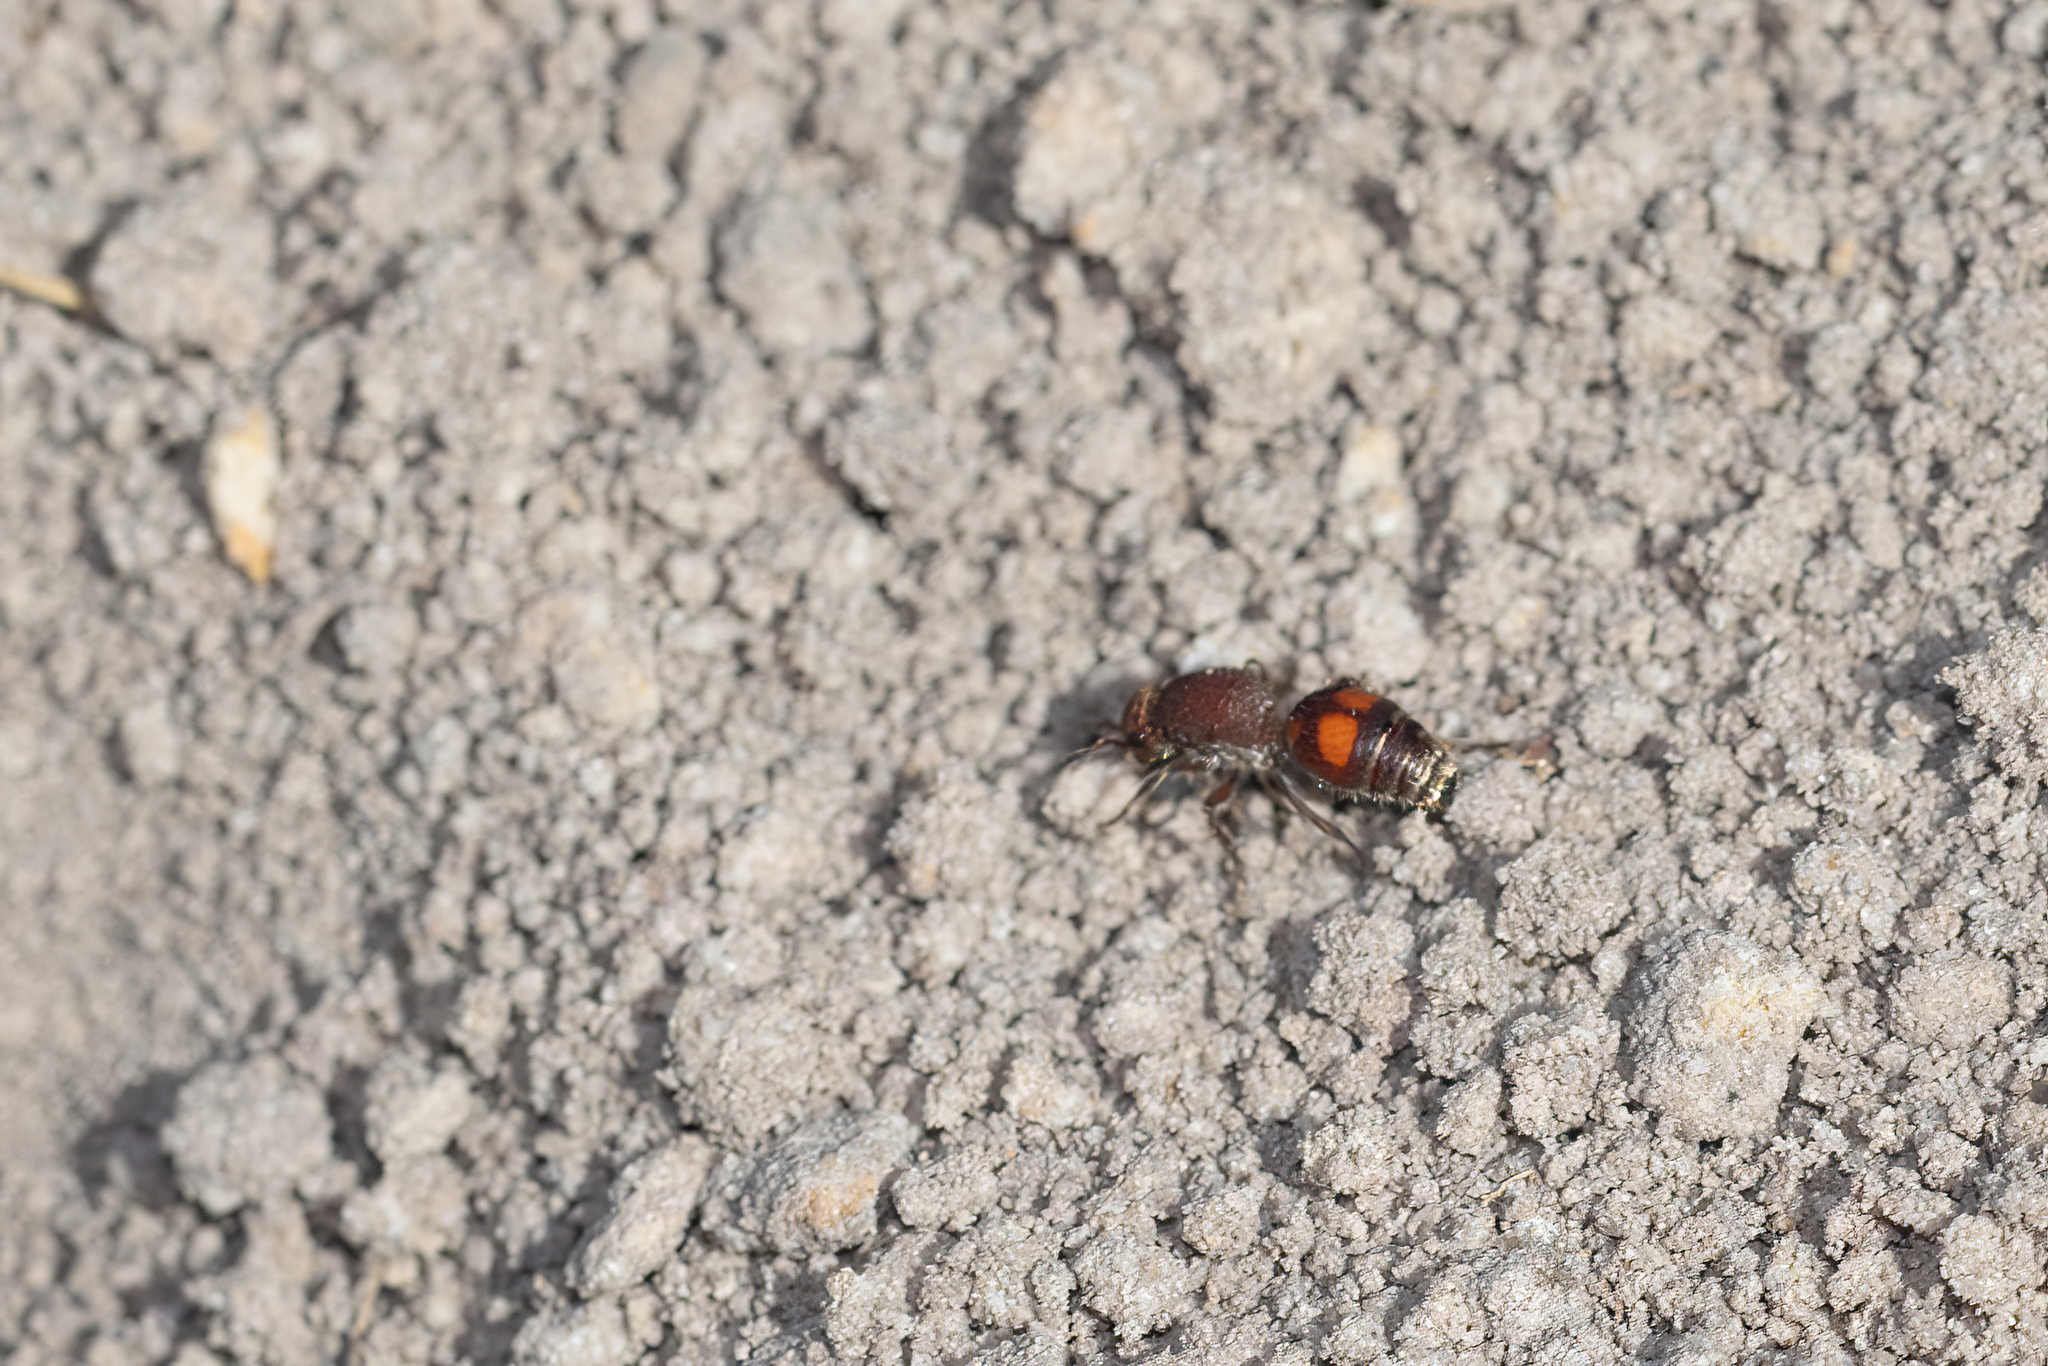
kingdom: Animalia
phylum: Arthropoda
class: Insecta
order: Hymenoptera
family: Mutillidae
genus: Dasymutilla
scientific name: Dasymutilla
